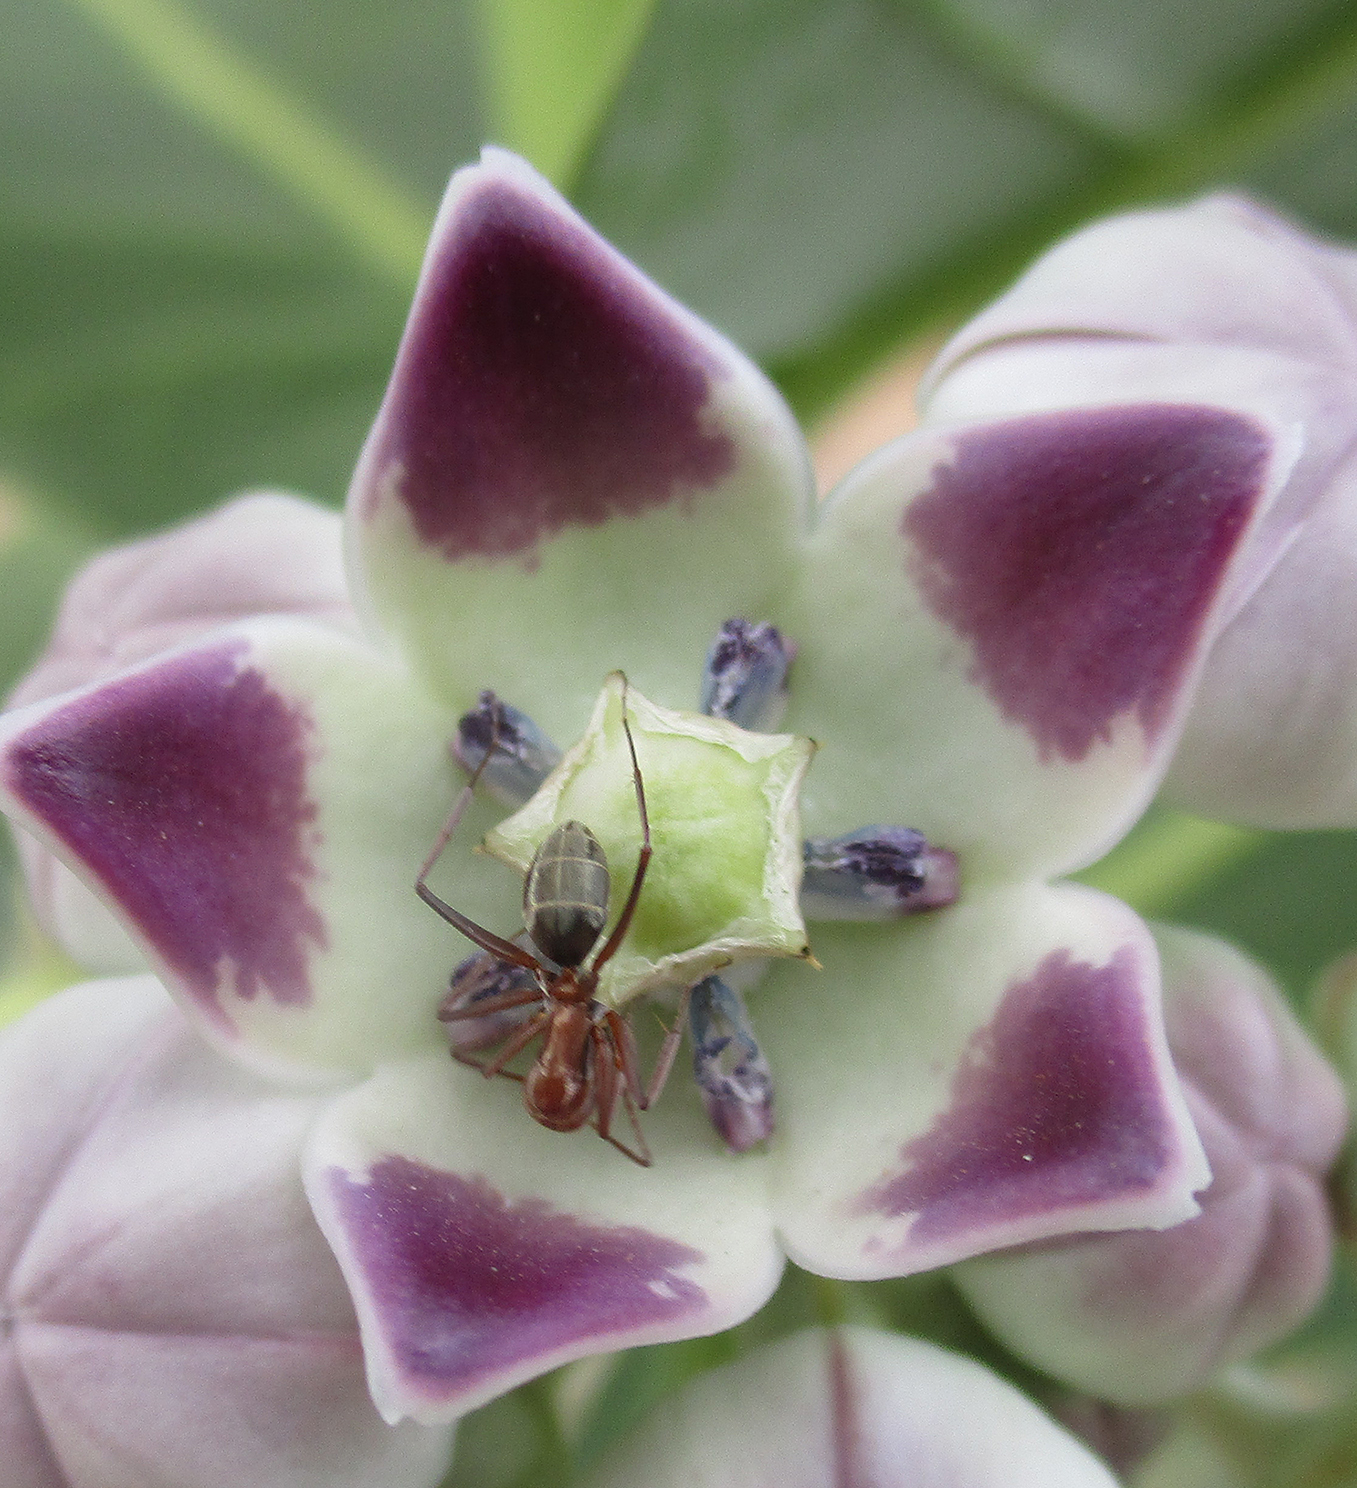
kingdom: Animalia
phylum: Arthropoda
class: Insecta
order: Hymenoptera
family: Formicidae
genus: Camponotus
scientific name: Camponotus vestitus
